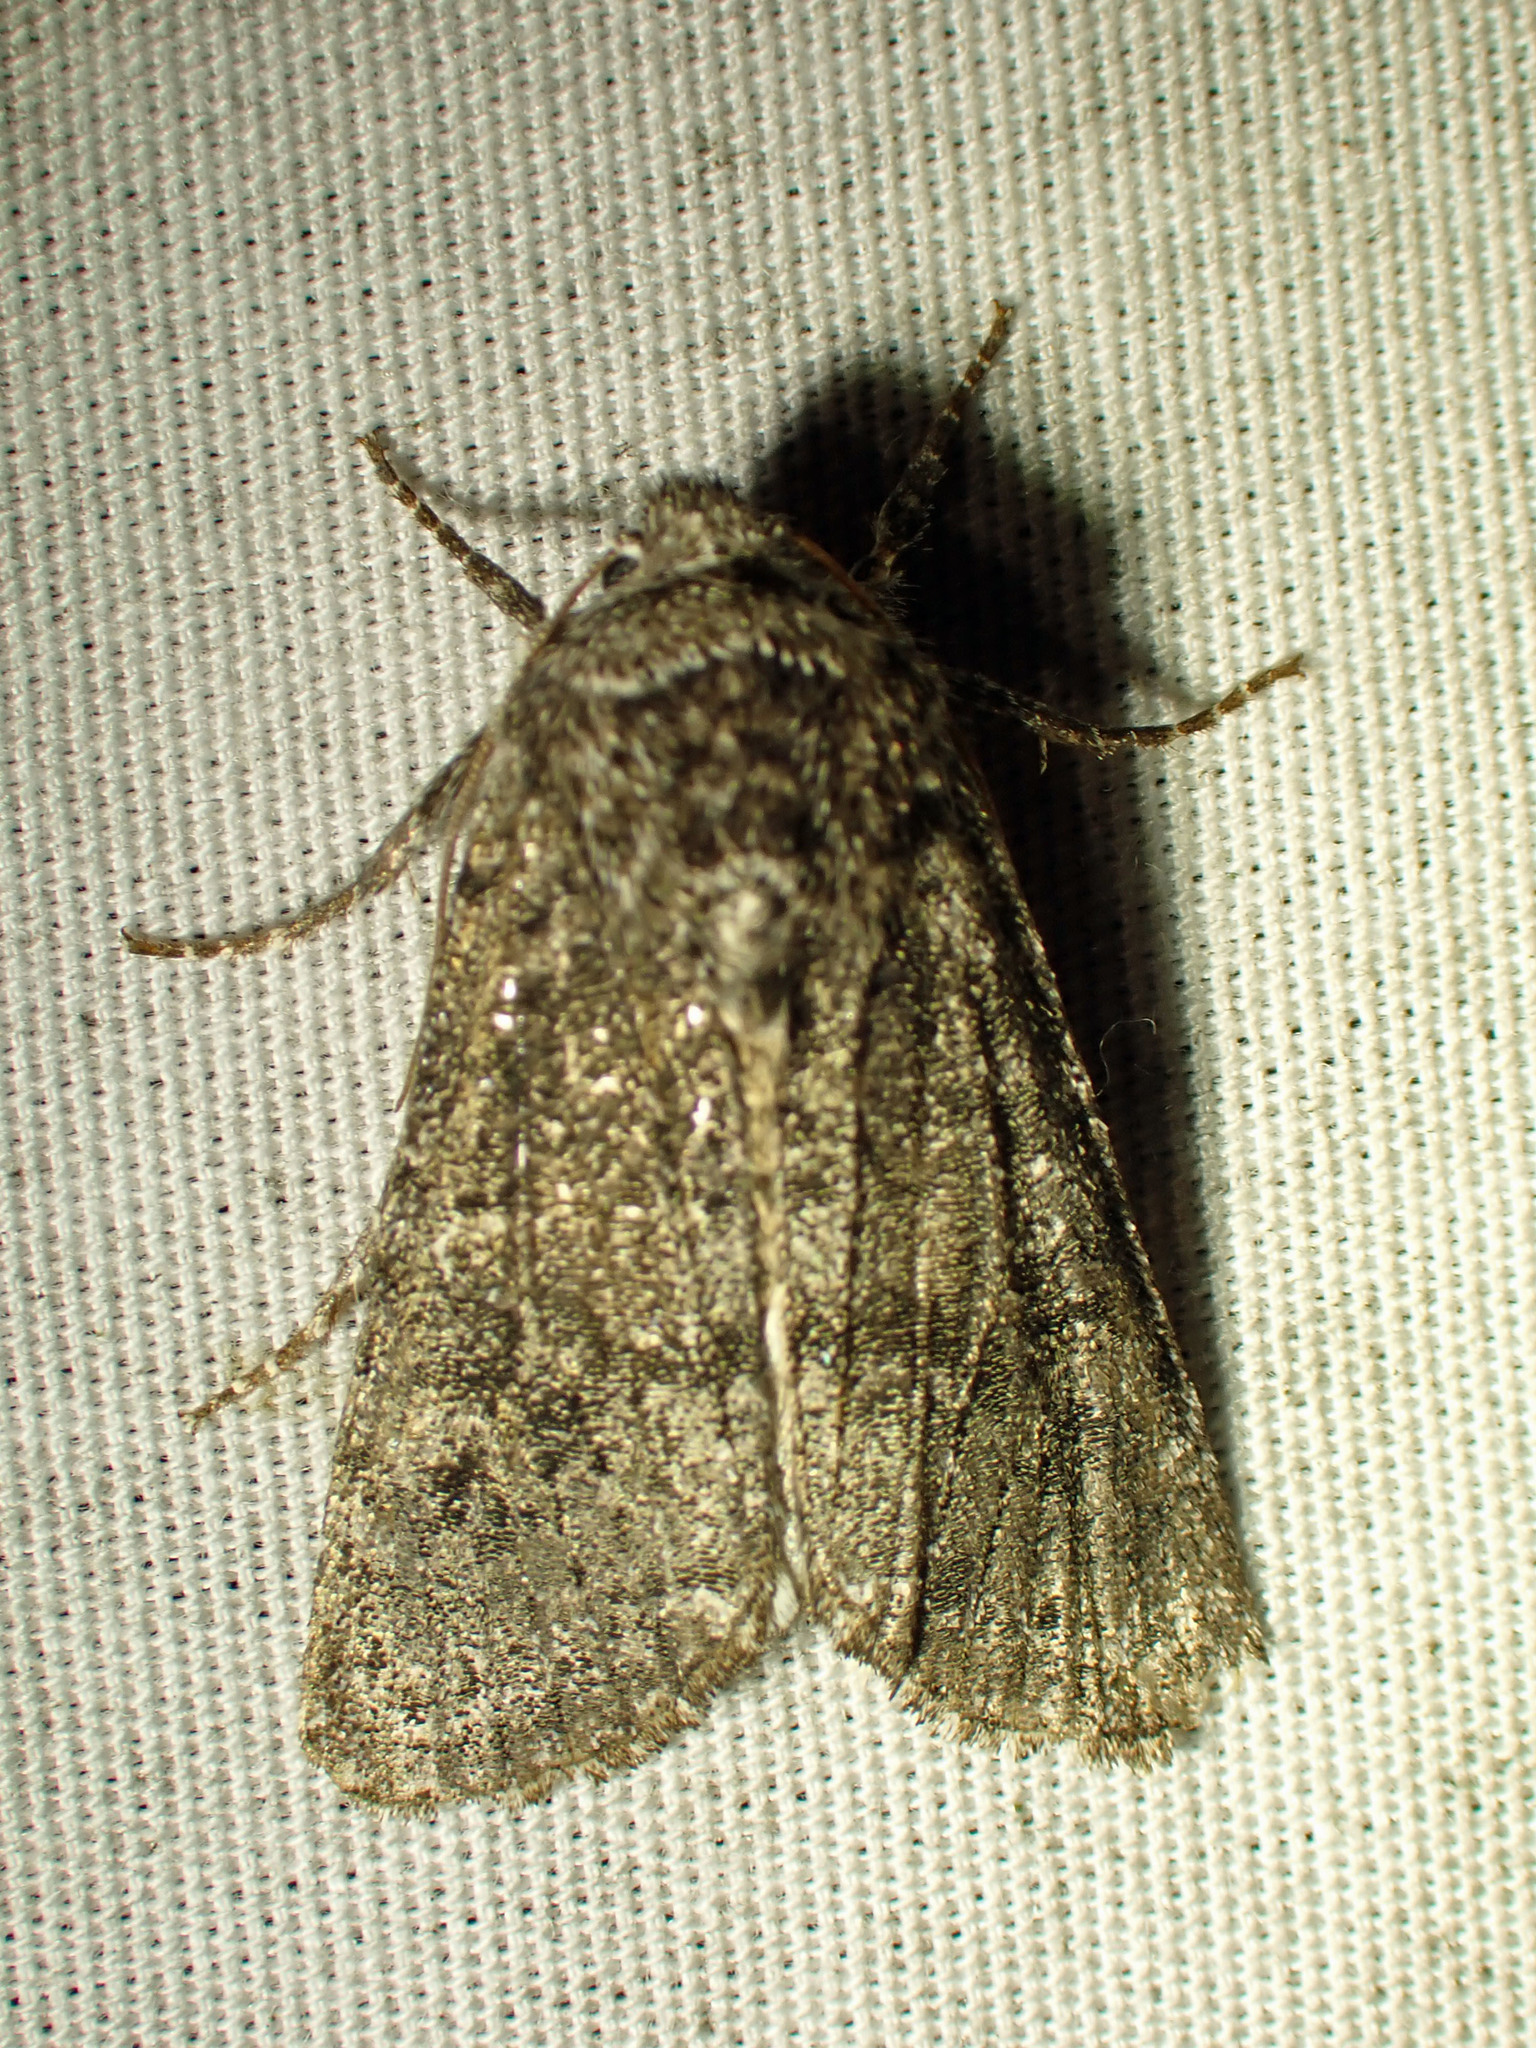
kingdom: Animalia
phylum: Arthropoda
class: Insecta
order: Lepidoptera
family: Noctuidae
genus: Egira
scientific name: Egira dolosa
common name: Lined black aspen cat.
